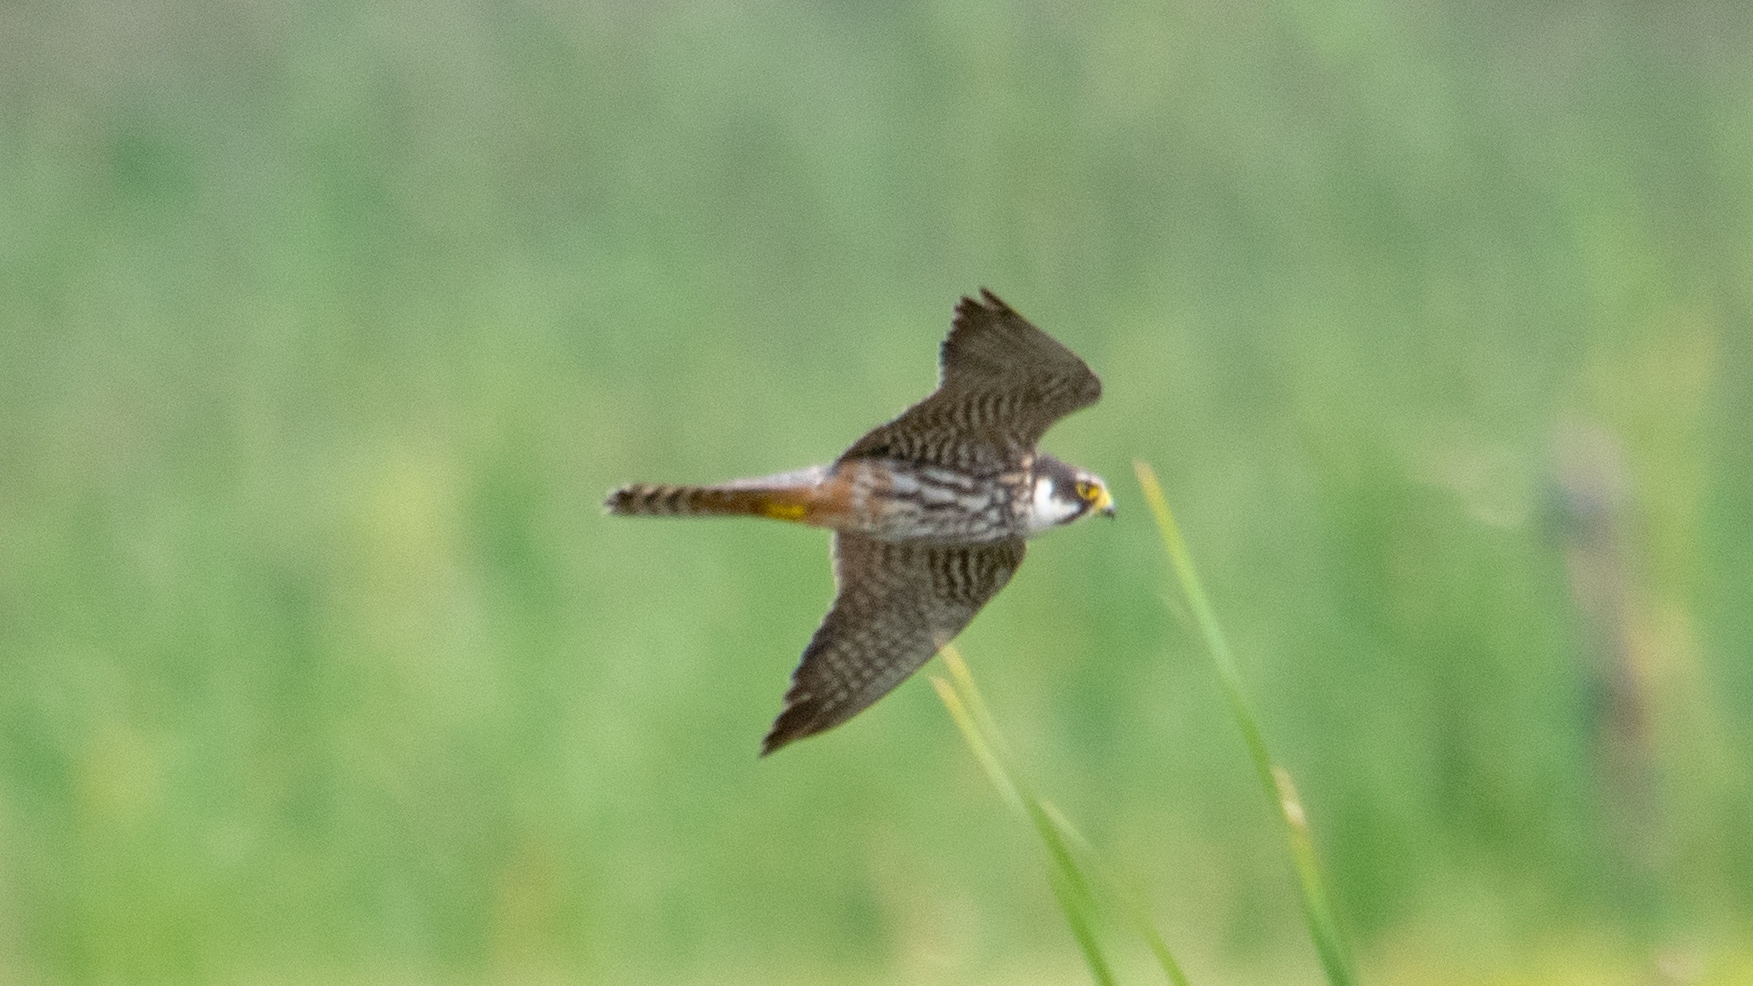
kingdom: Animalia
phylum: Chordata
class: Aves
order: Falconiformes
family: Falconidae
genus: Falco
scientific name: Falco subbuteo
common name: Eurasian hobby
